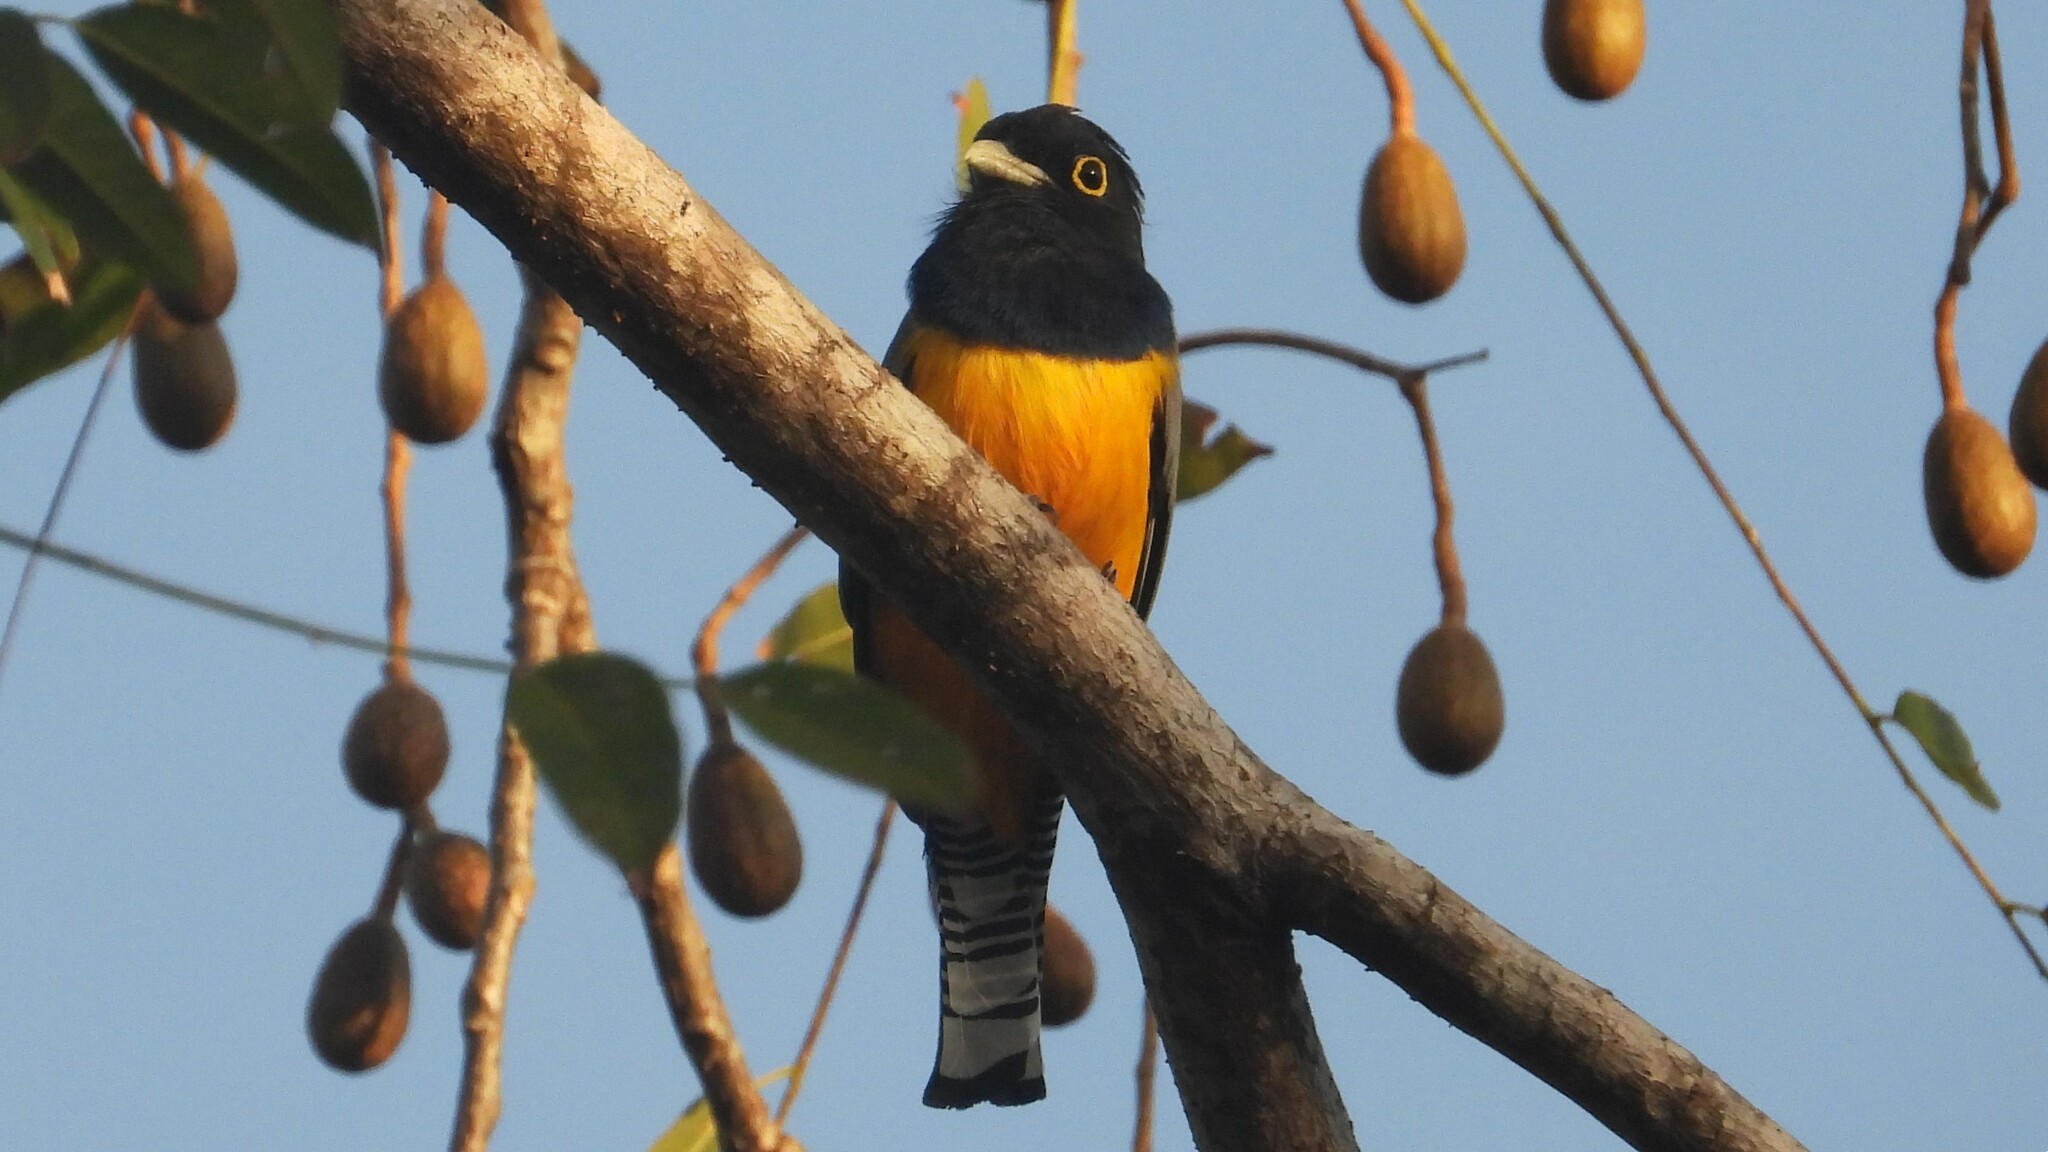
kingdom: Animalia
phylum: Chordata
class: Aves
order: Trogoniformes
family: Trogonidae
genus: Trogon
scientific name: Trogon caligatus
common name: Gartered trogon
